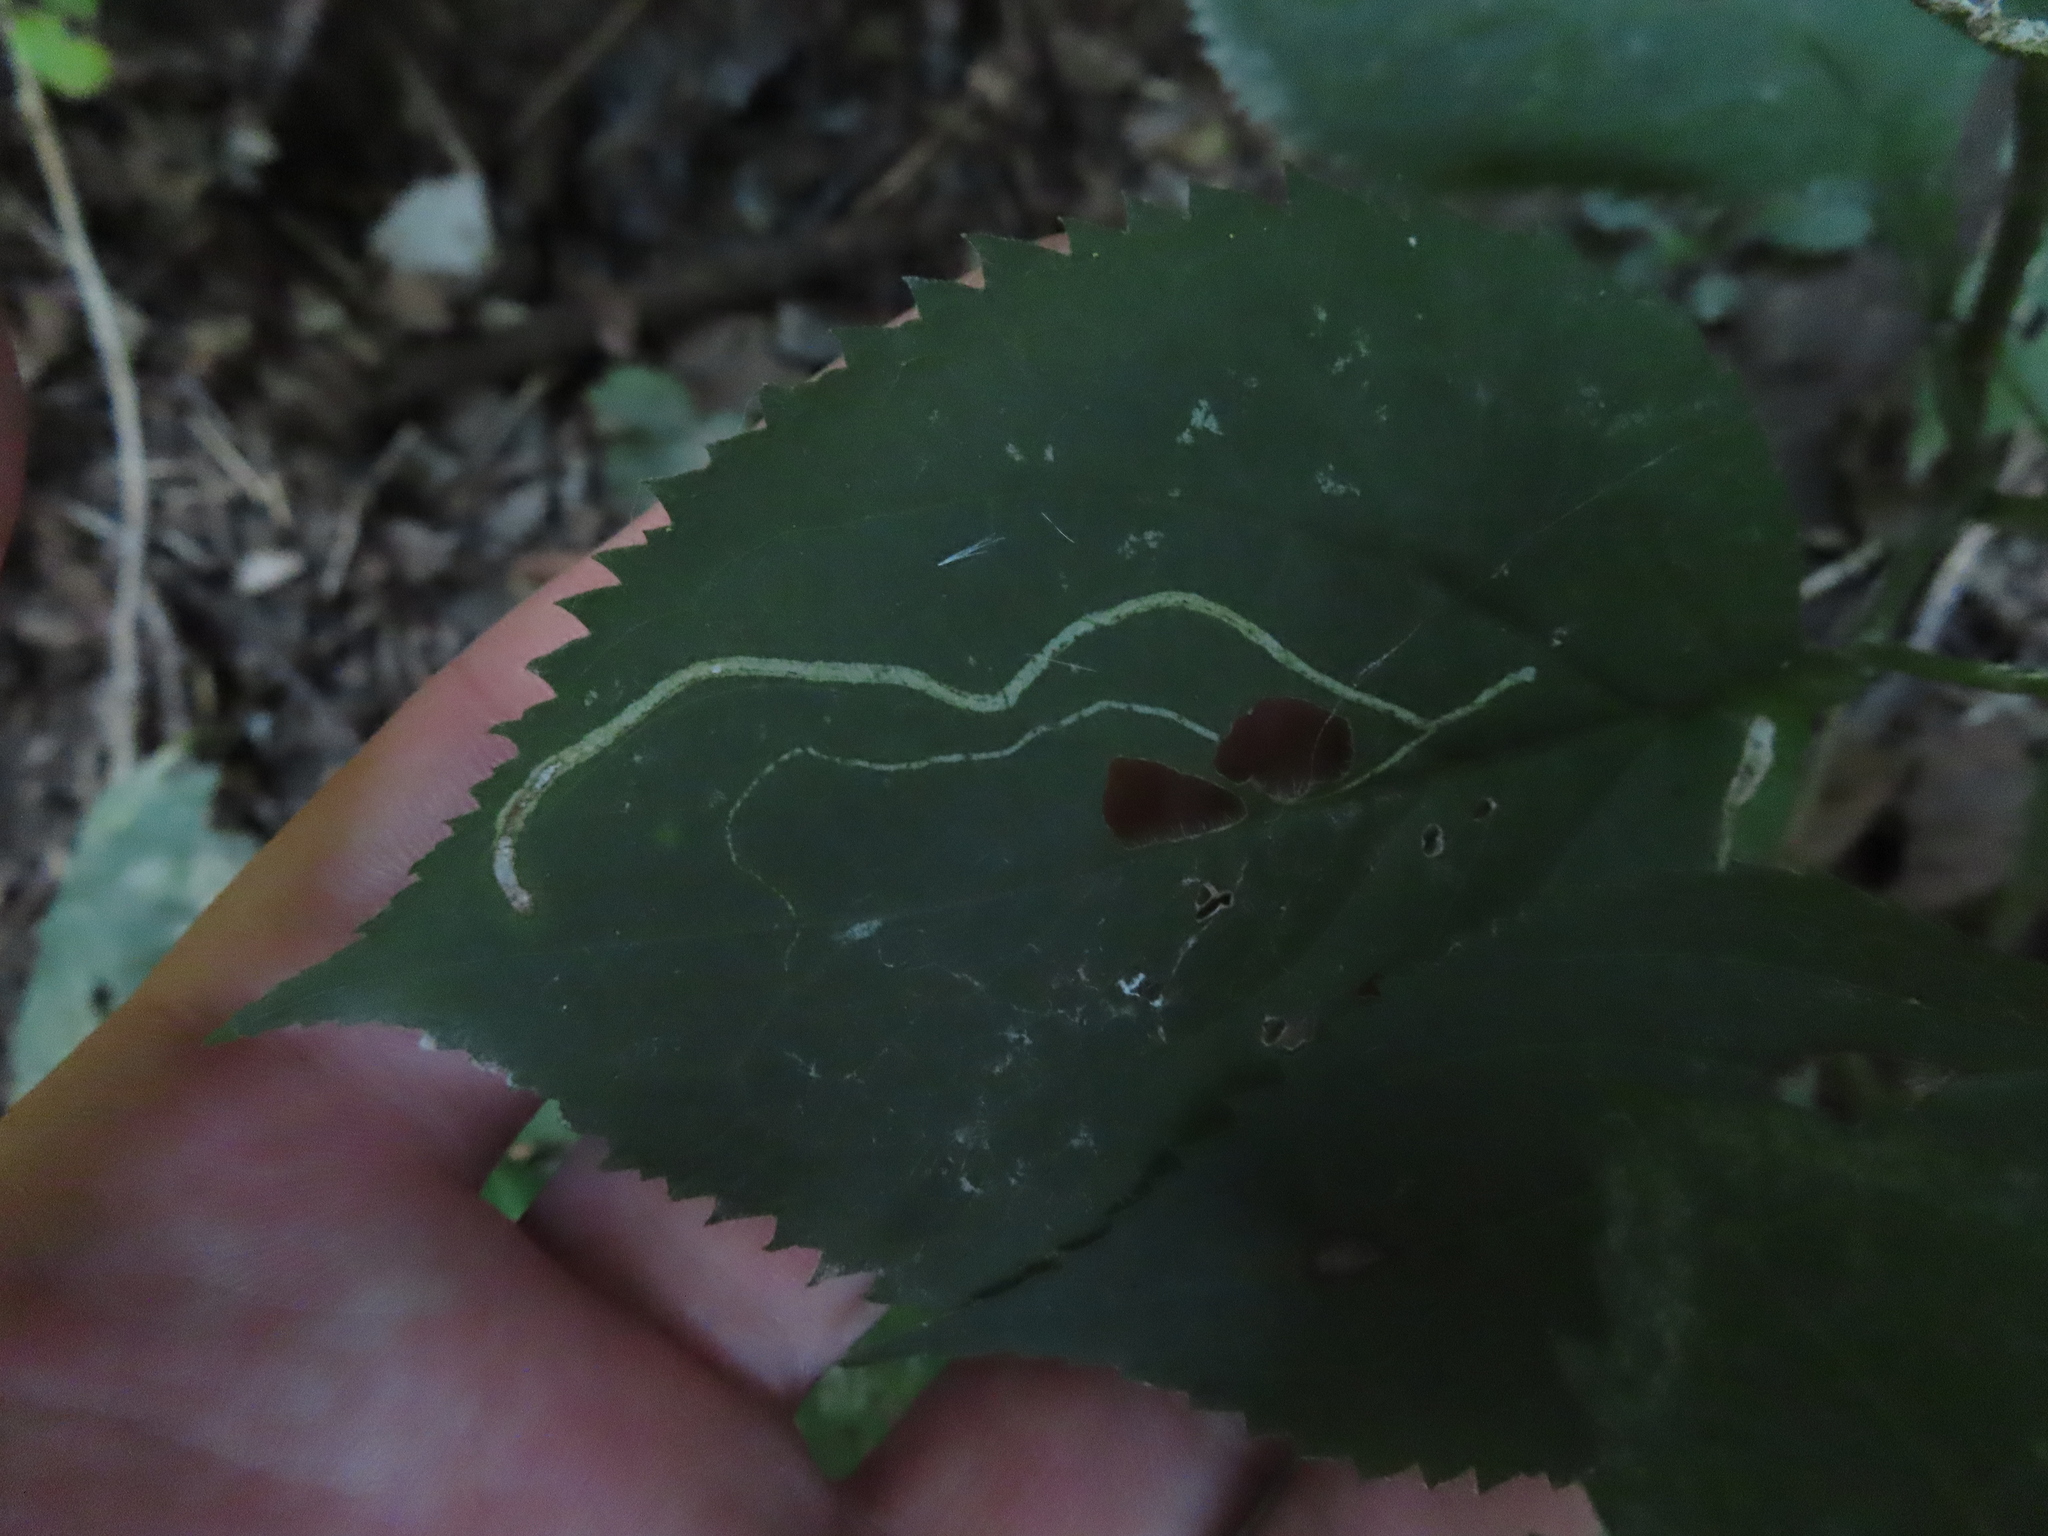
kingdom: Animalia
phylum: Arthropoda
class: Insecta
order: Diptera
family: Agromyzidae
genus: Ophiomyia
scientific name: Ophiomyia maura
